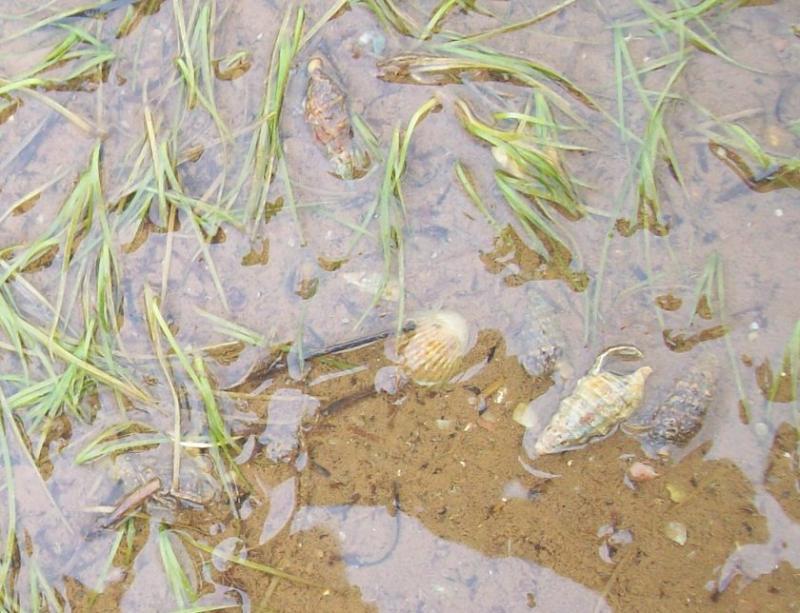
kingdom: Animalia
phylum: Mollusca
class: Gastropoda
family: Cerithiidae
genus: Cerithium
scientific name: Cerithium vulgatum
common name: European cerith
